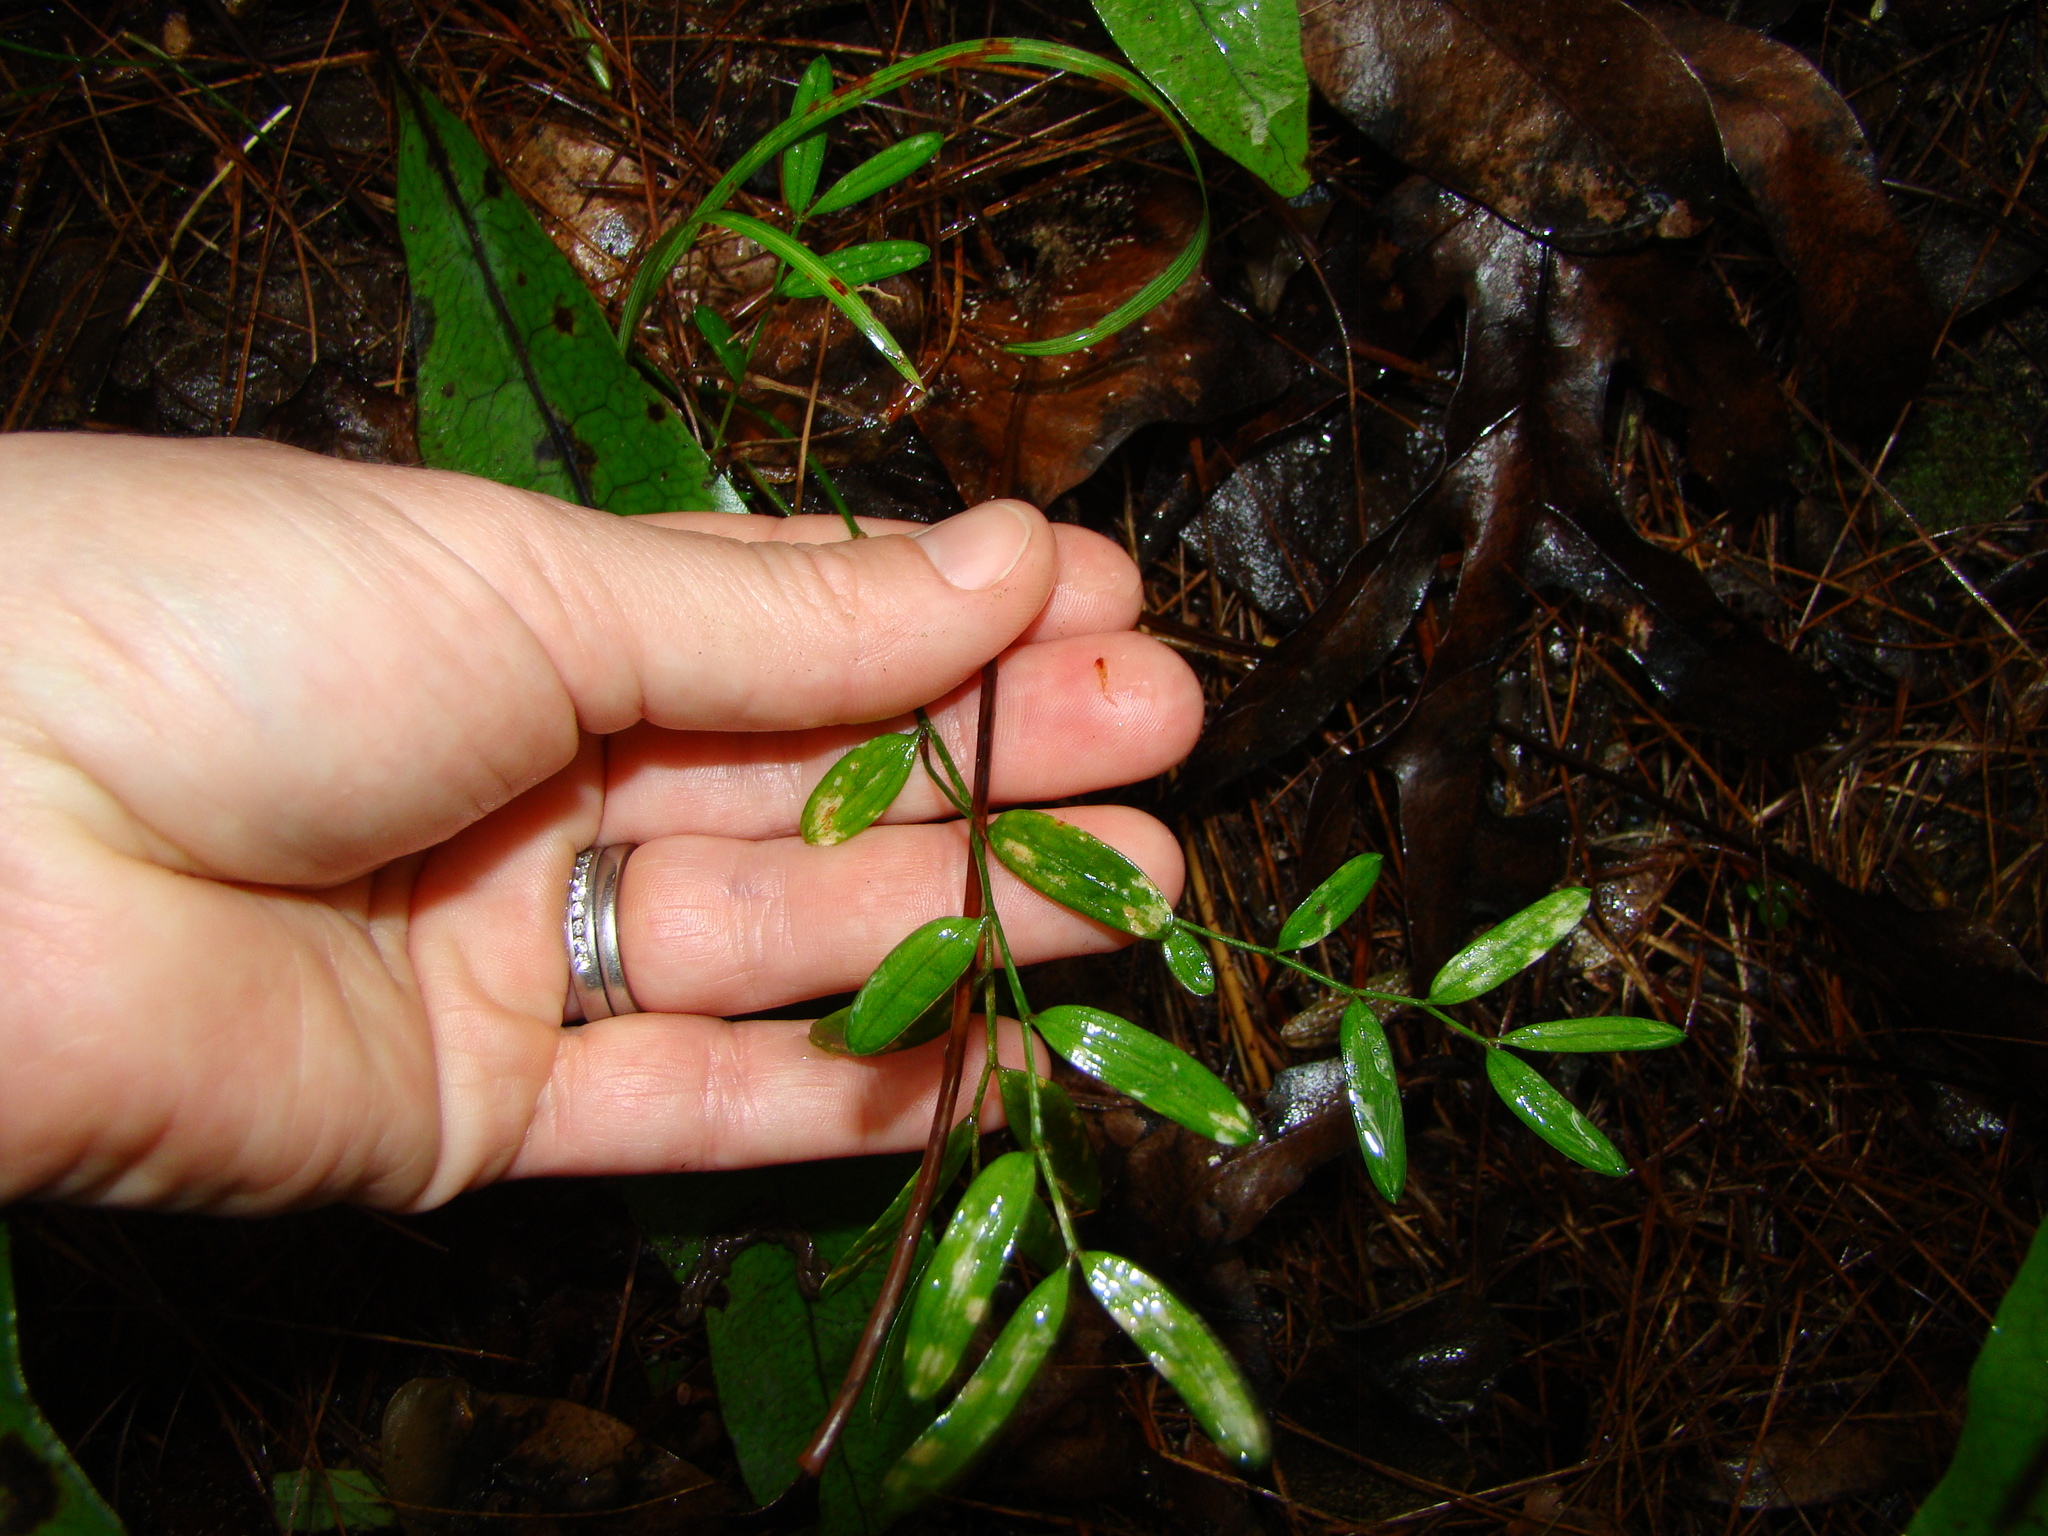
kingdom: Plantae
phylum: Tracheophyta
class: Liliopsida
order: Liliales
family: Alstroemeriaceae
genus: Luzuriaga
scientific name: Luzuriaga parviflora
